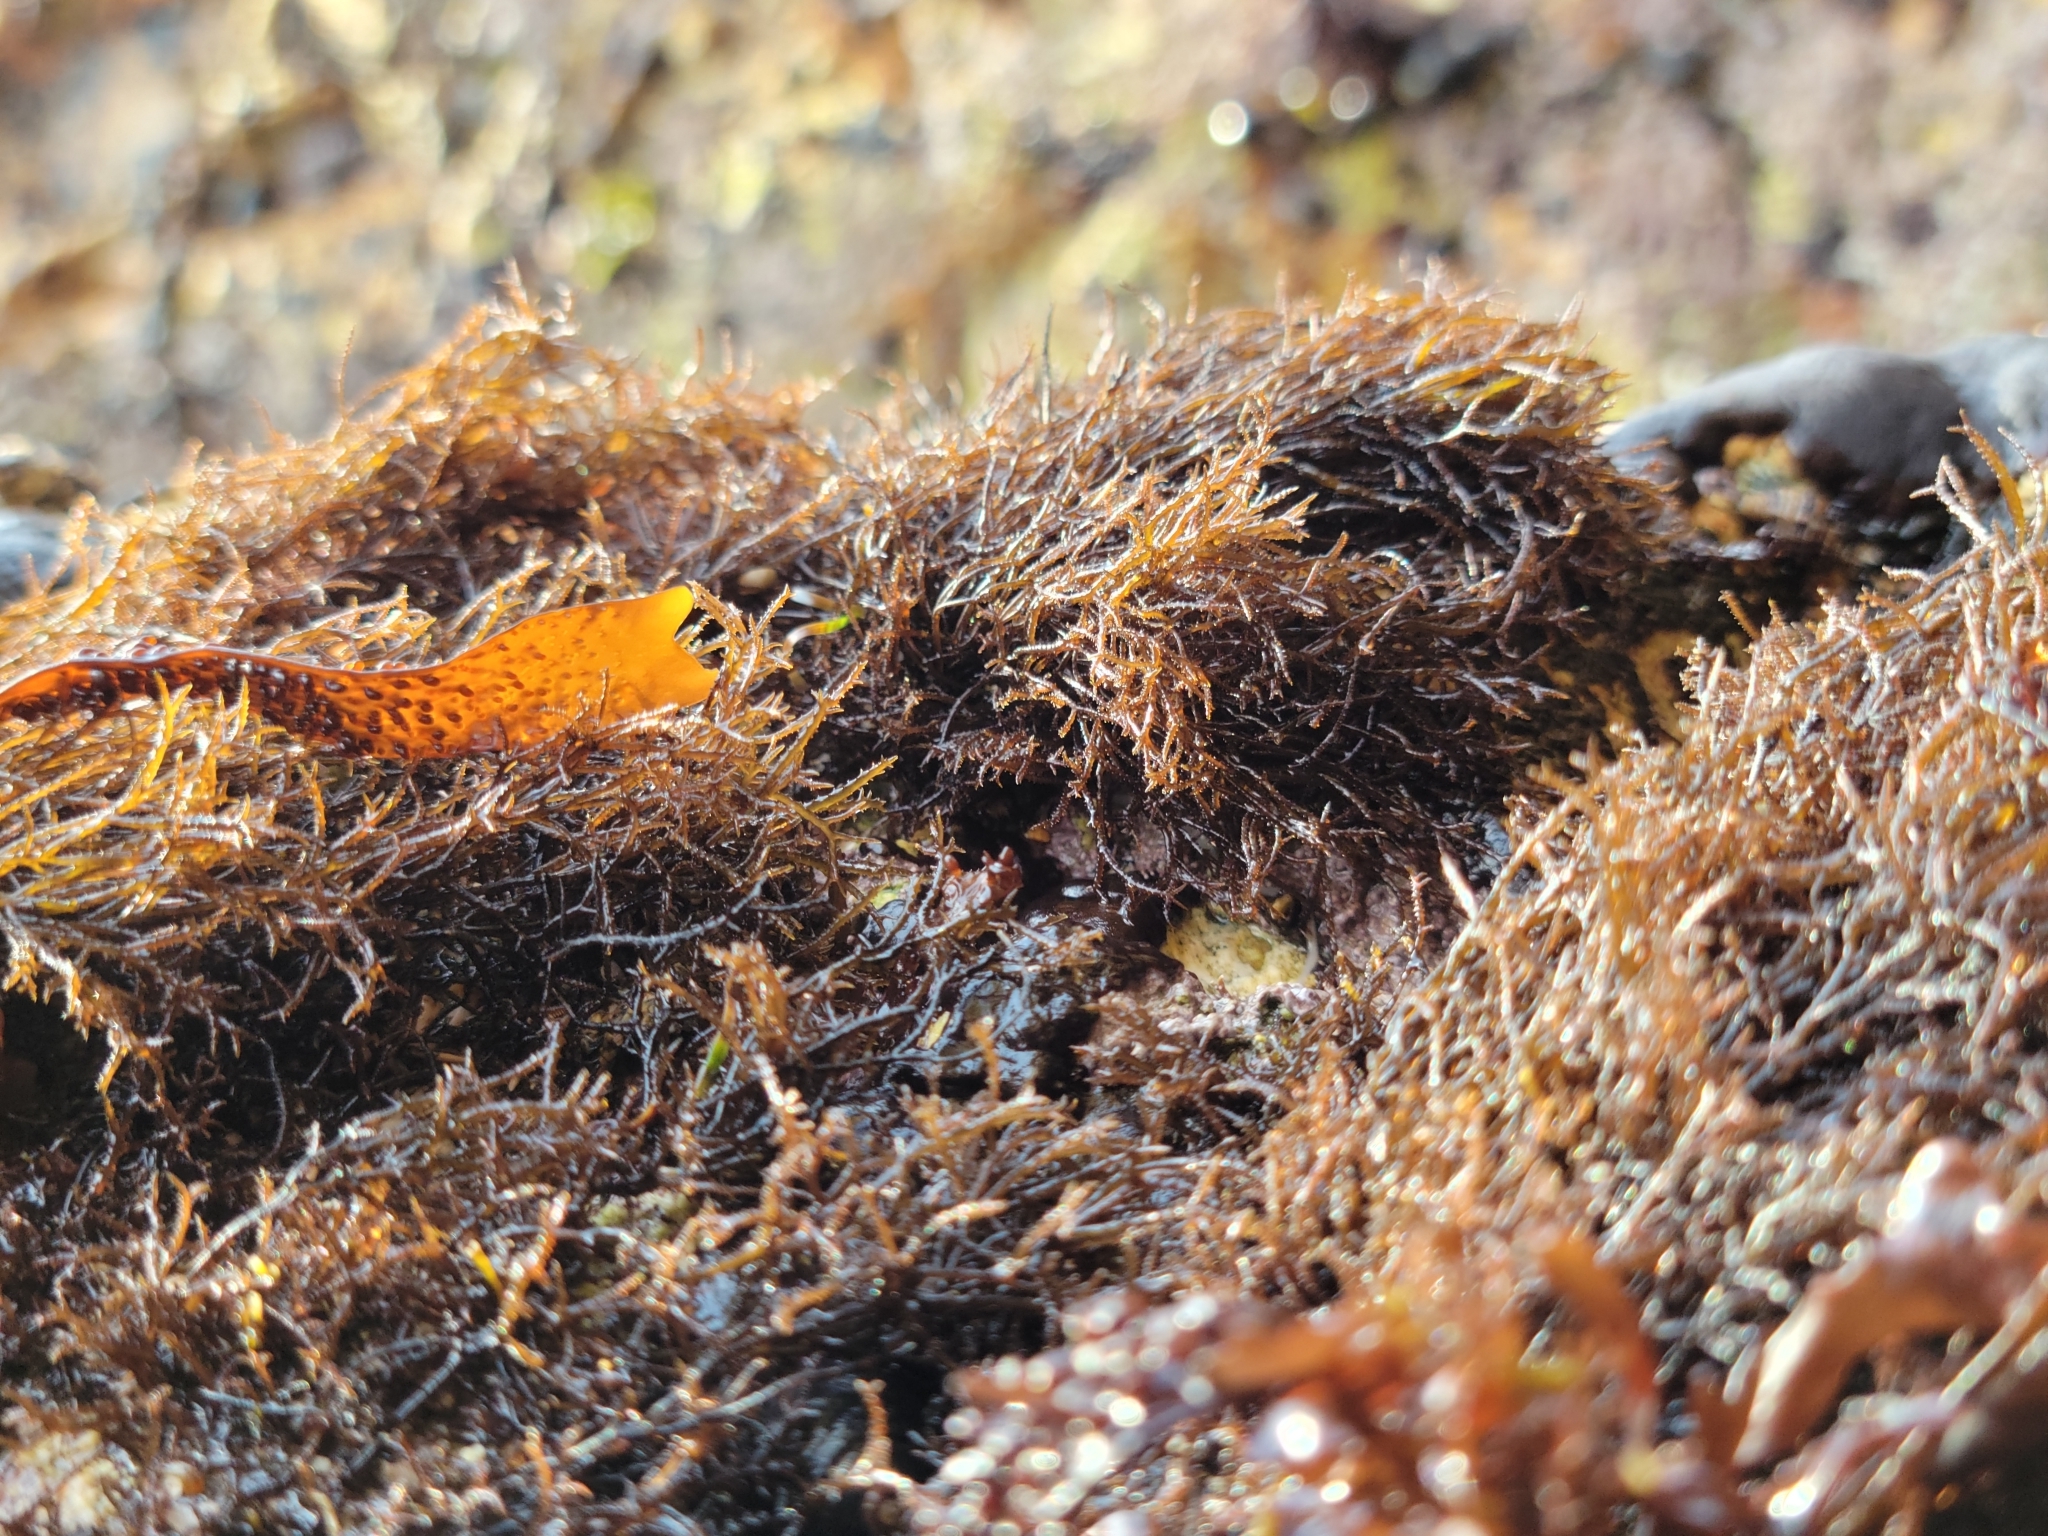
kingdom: Plantae
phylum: Rhodophyta
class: Florideophyceae
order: Gigartinales
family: Endocladiaceae
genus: Endocladia
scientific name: Endocladia muricata
